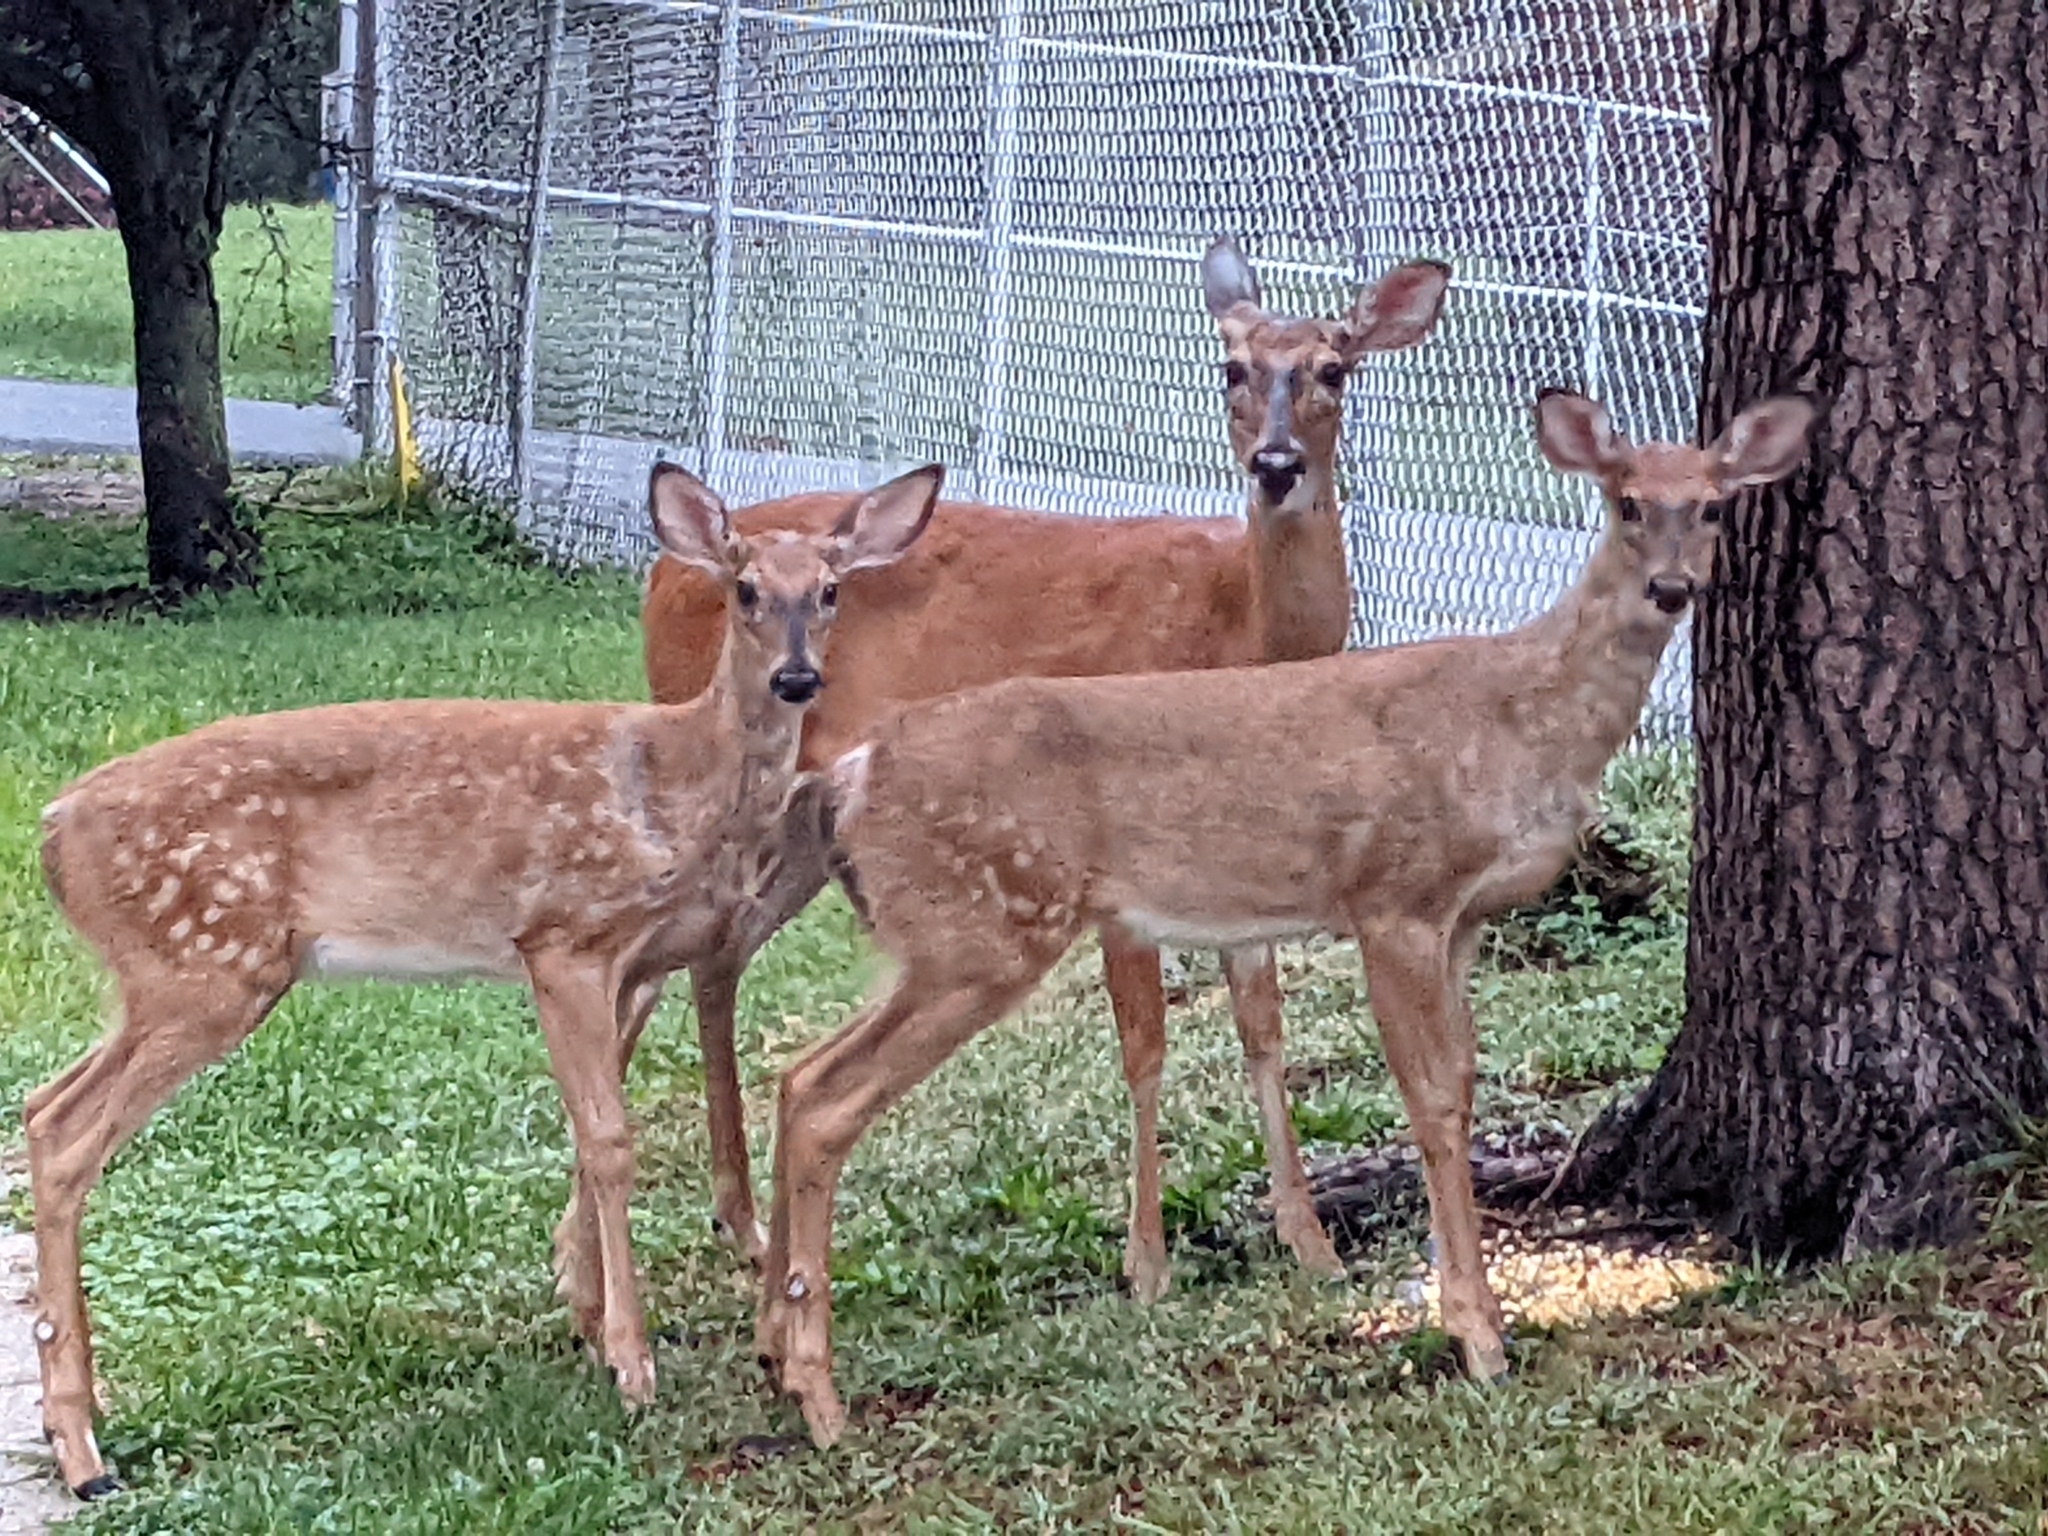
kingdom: Animalia
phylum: Chordata
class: Mammalia
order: Artiodactyla
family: Cervidae
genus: Odocoileus
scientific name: Odocoileus virginianus
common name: White-tailed deer
